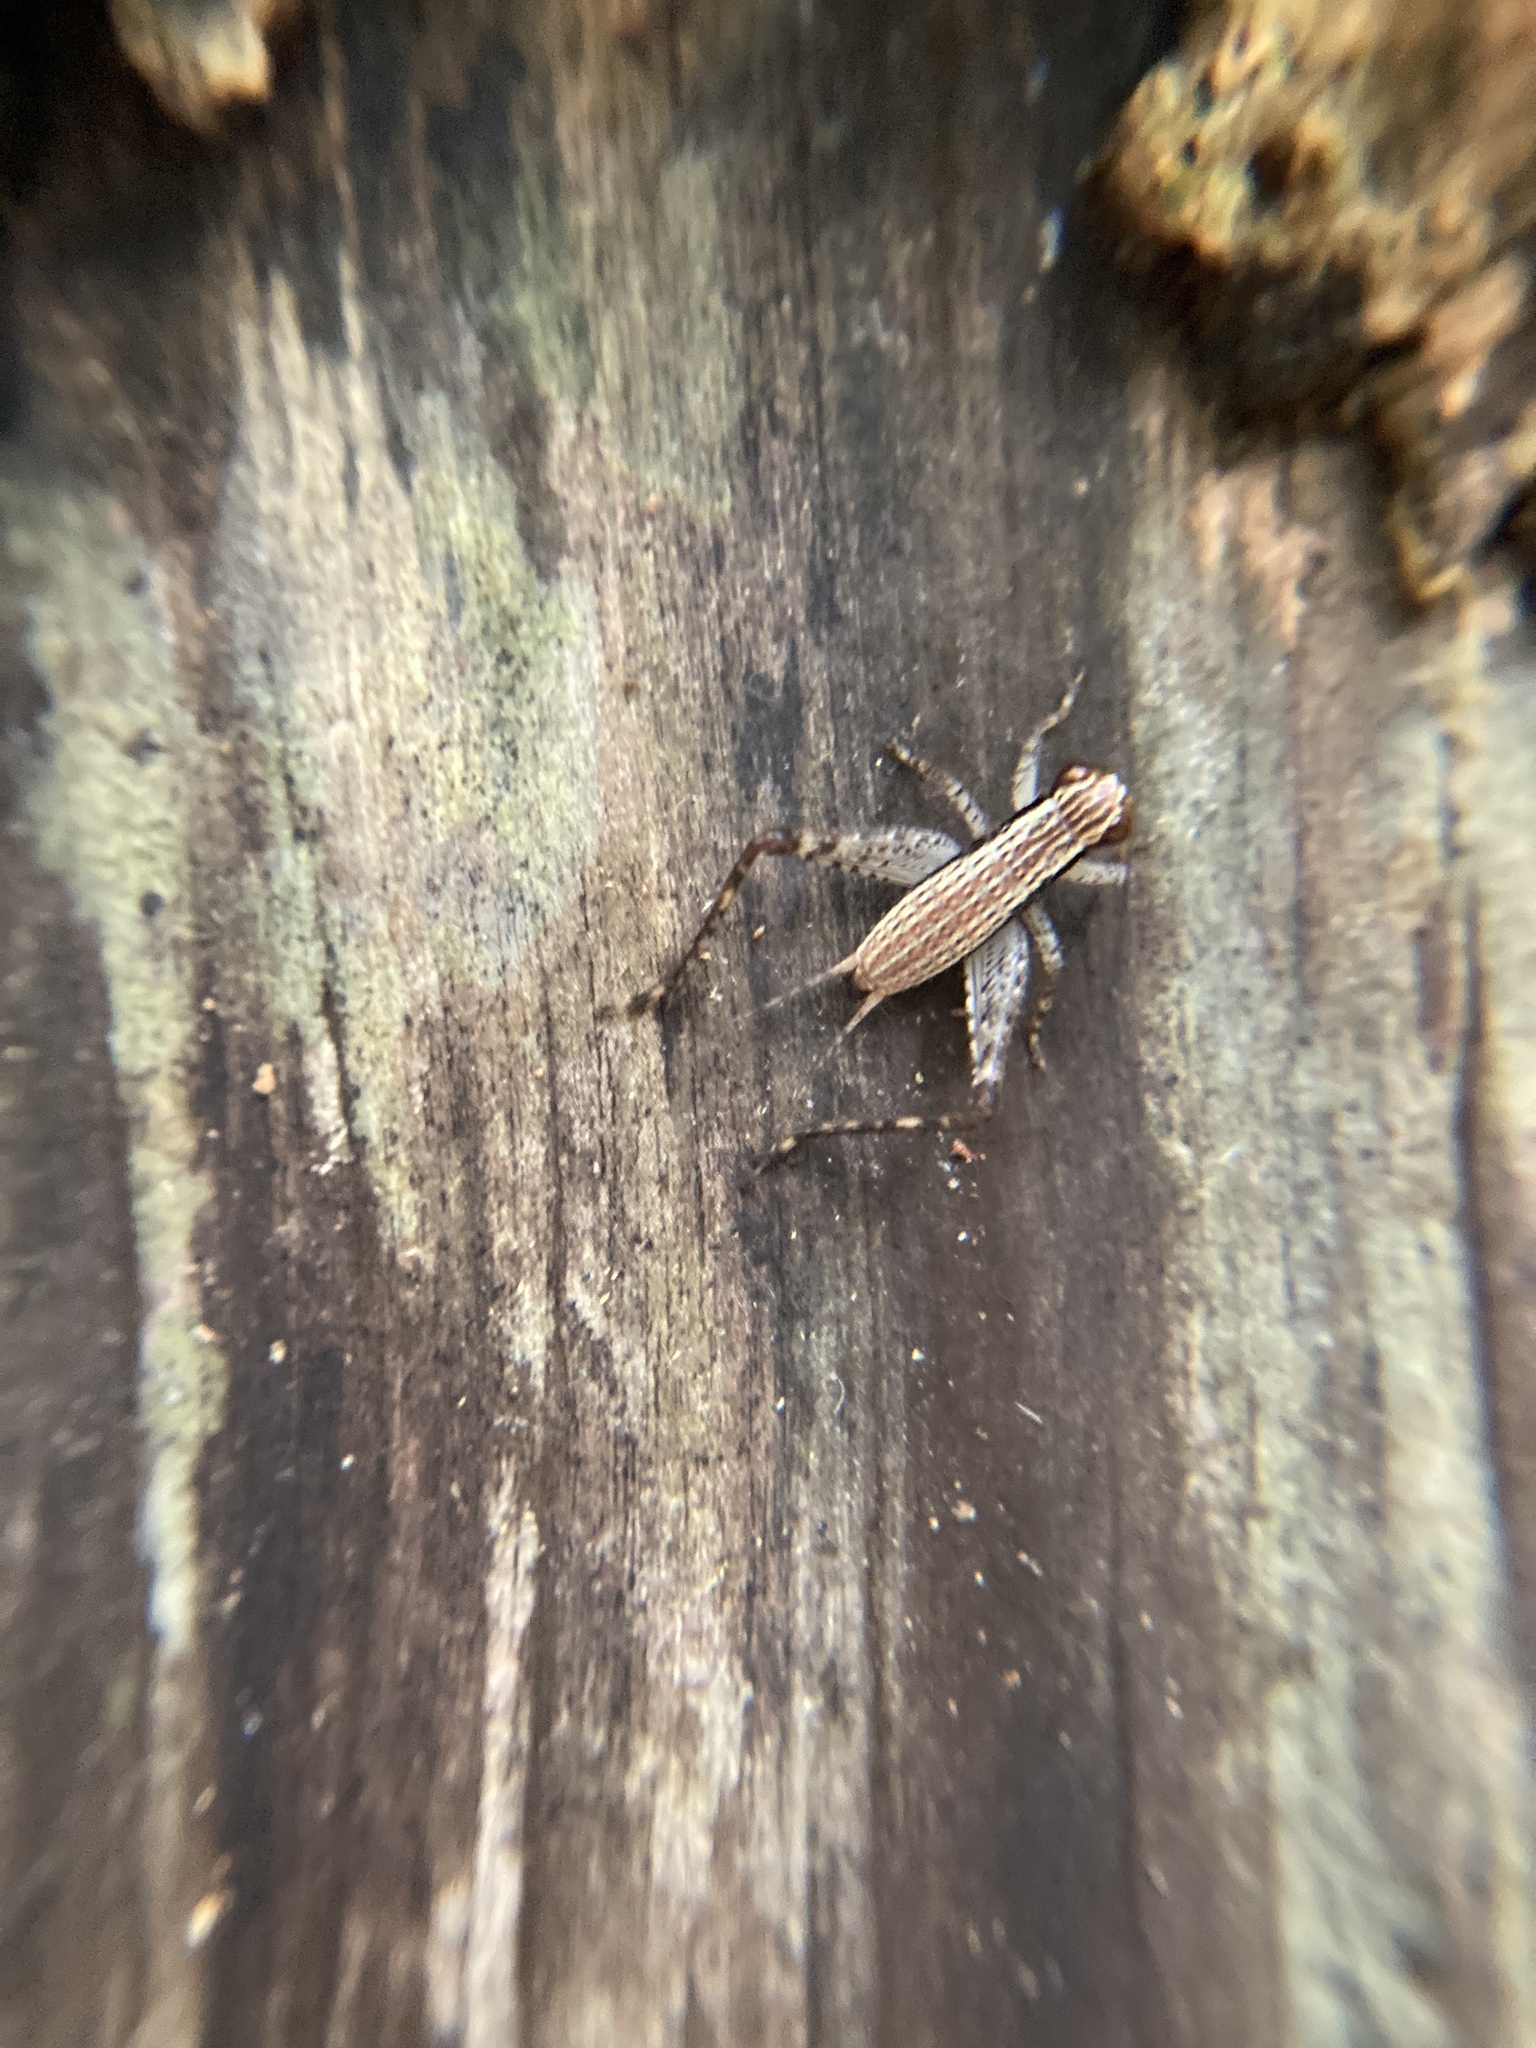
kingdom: Animalia
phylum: Arthropoda
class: Insecta
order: Orthoptera
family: Gryllidae
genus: Cardiodactylus
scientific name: Cardiodactylus novaeguineae
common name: Sad cricket
